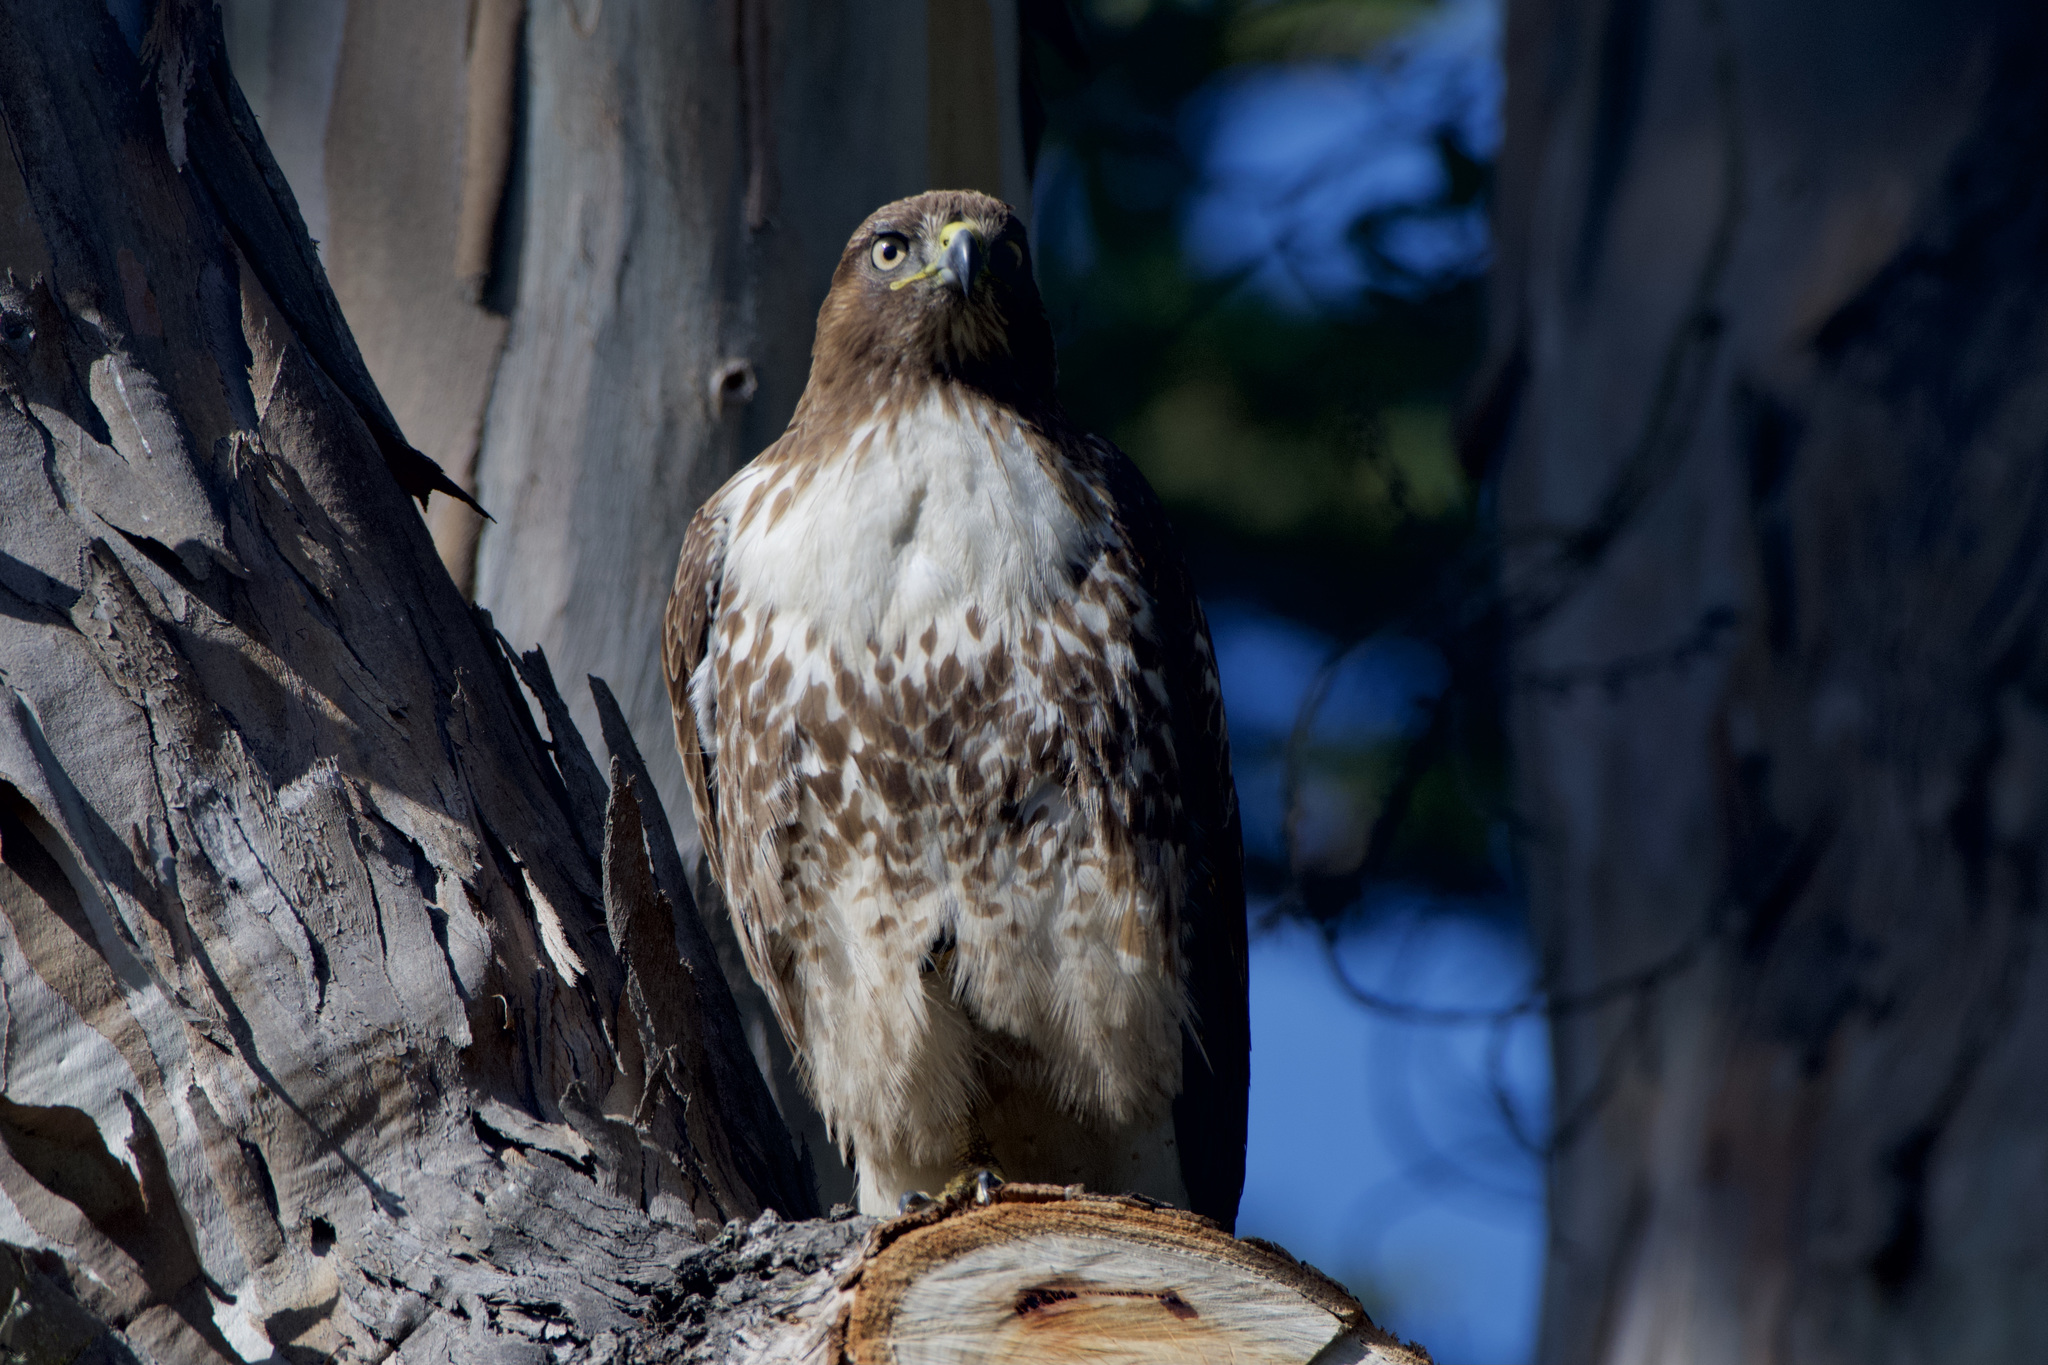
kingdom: Animalia
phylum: Chordata
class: Aves
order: Accipitriformes
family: Accipitridae
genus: Buteo
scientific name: Buteo jamaicensis
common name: Red-tailed hawk
